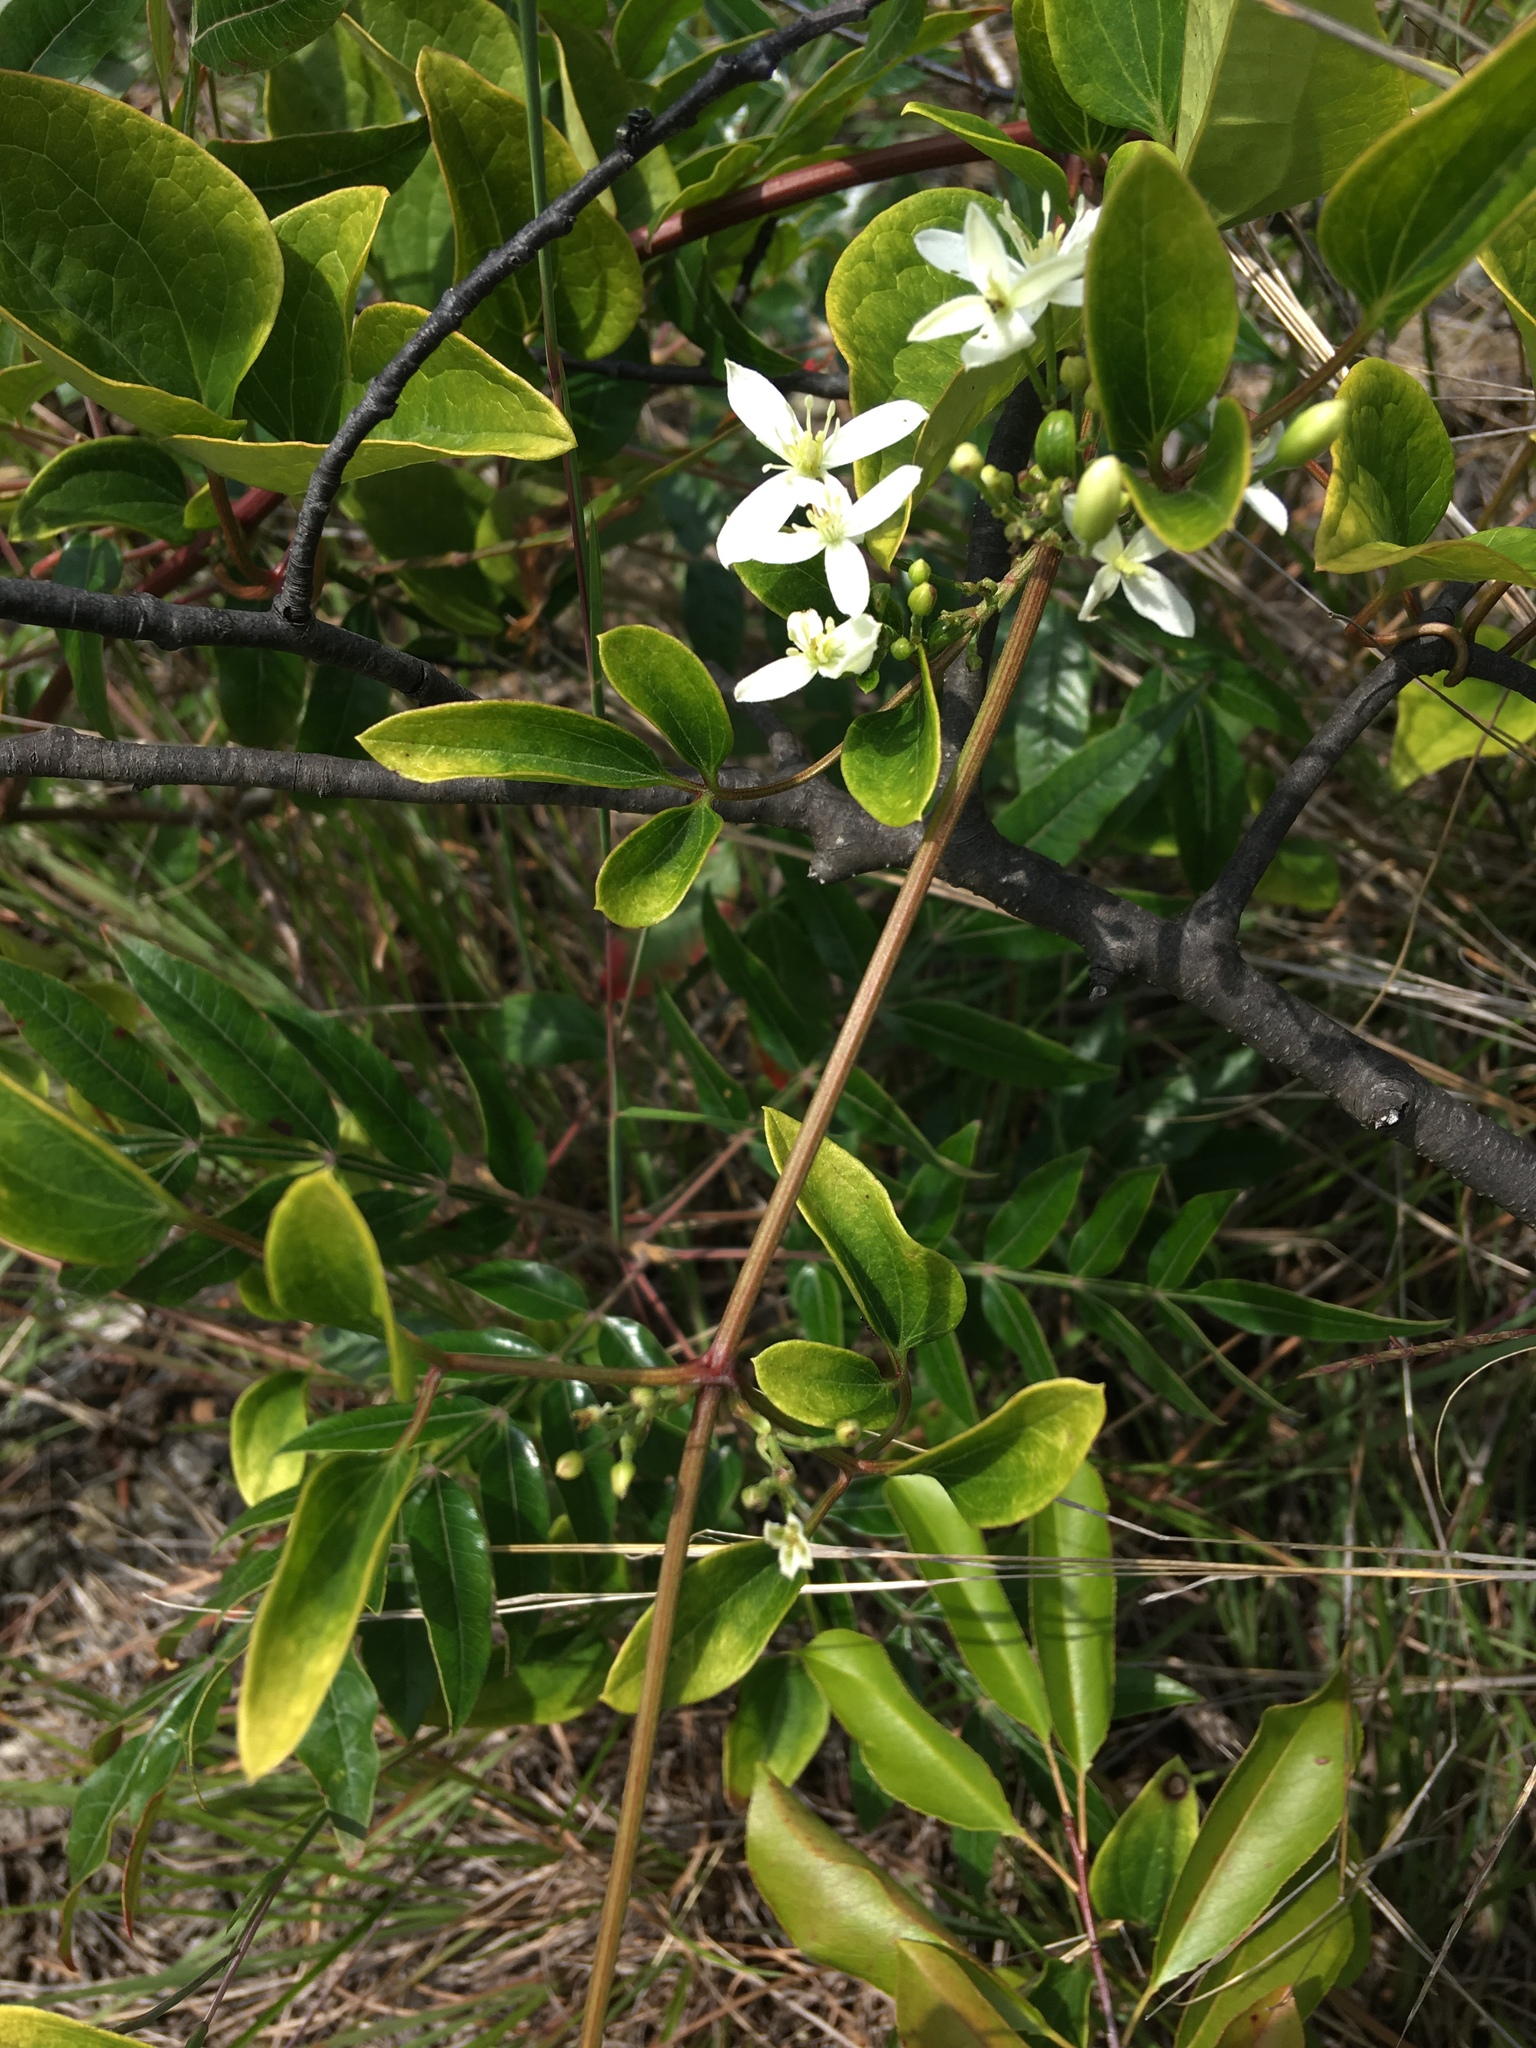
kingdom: Plantae
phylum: Tracheophyta
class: Magnoliopsida
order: Ranunculales
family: Ranunculaceae
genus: Clematis
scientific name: Clematis terniflora
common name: Sweet autumn clematis
